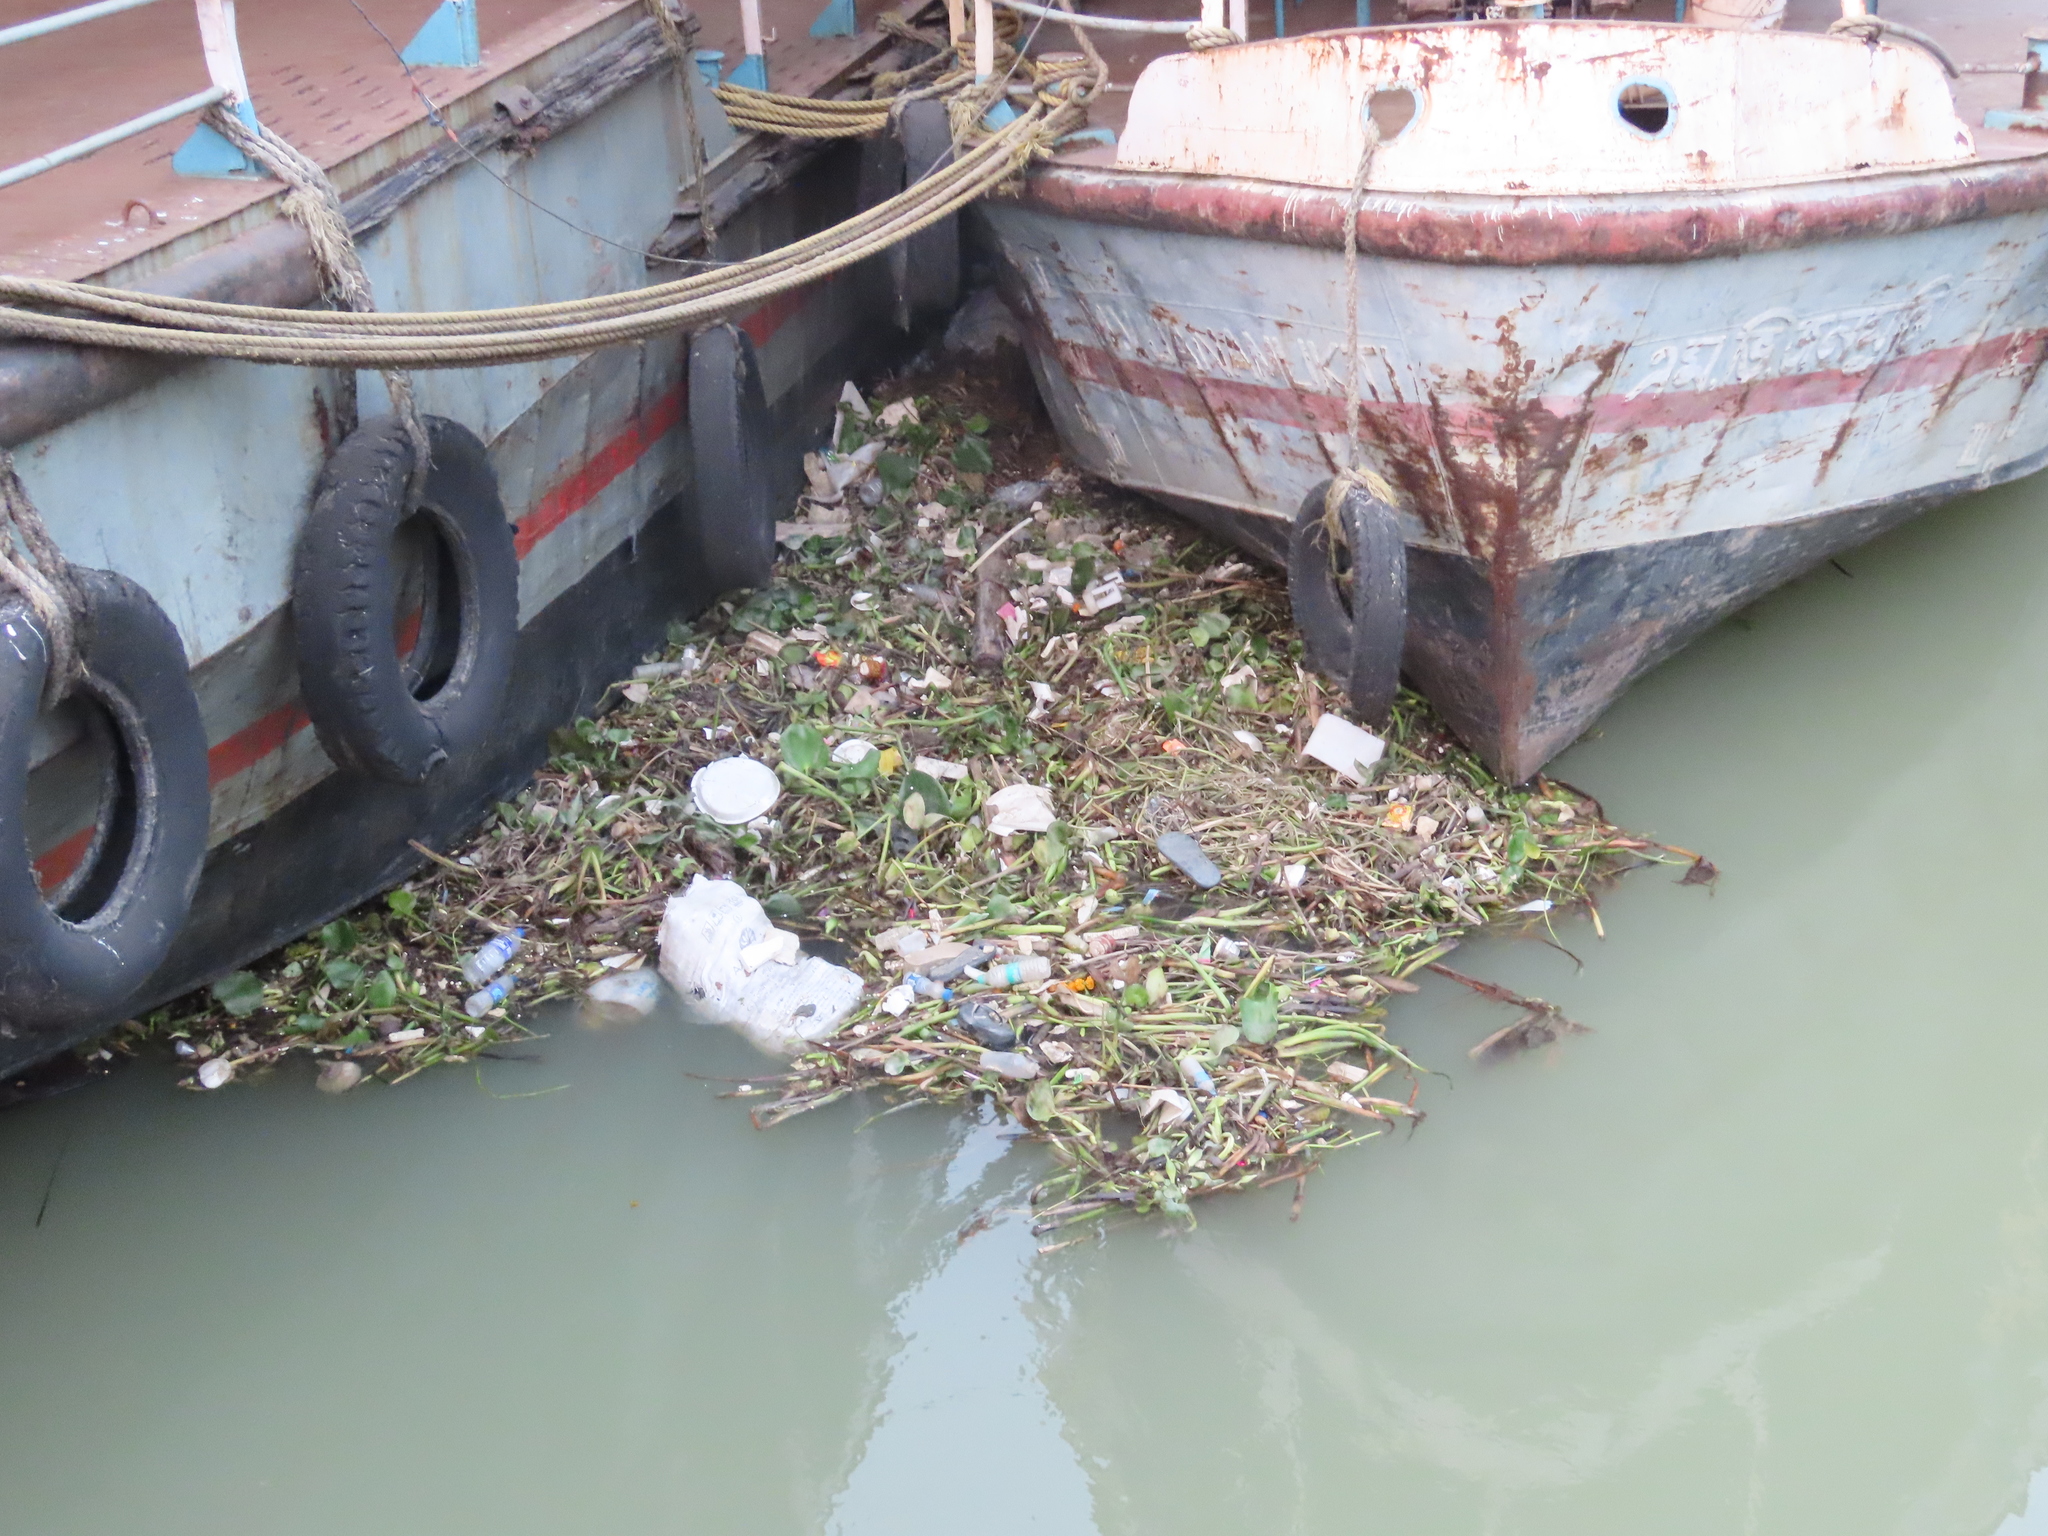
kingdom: Plantae
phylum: Tracheophyta
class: Liliopsida
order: Commelinales
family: Pontederiaceae
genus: Pontederia
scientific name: Pontederia crassipes
